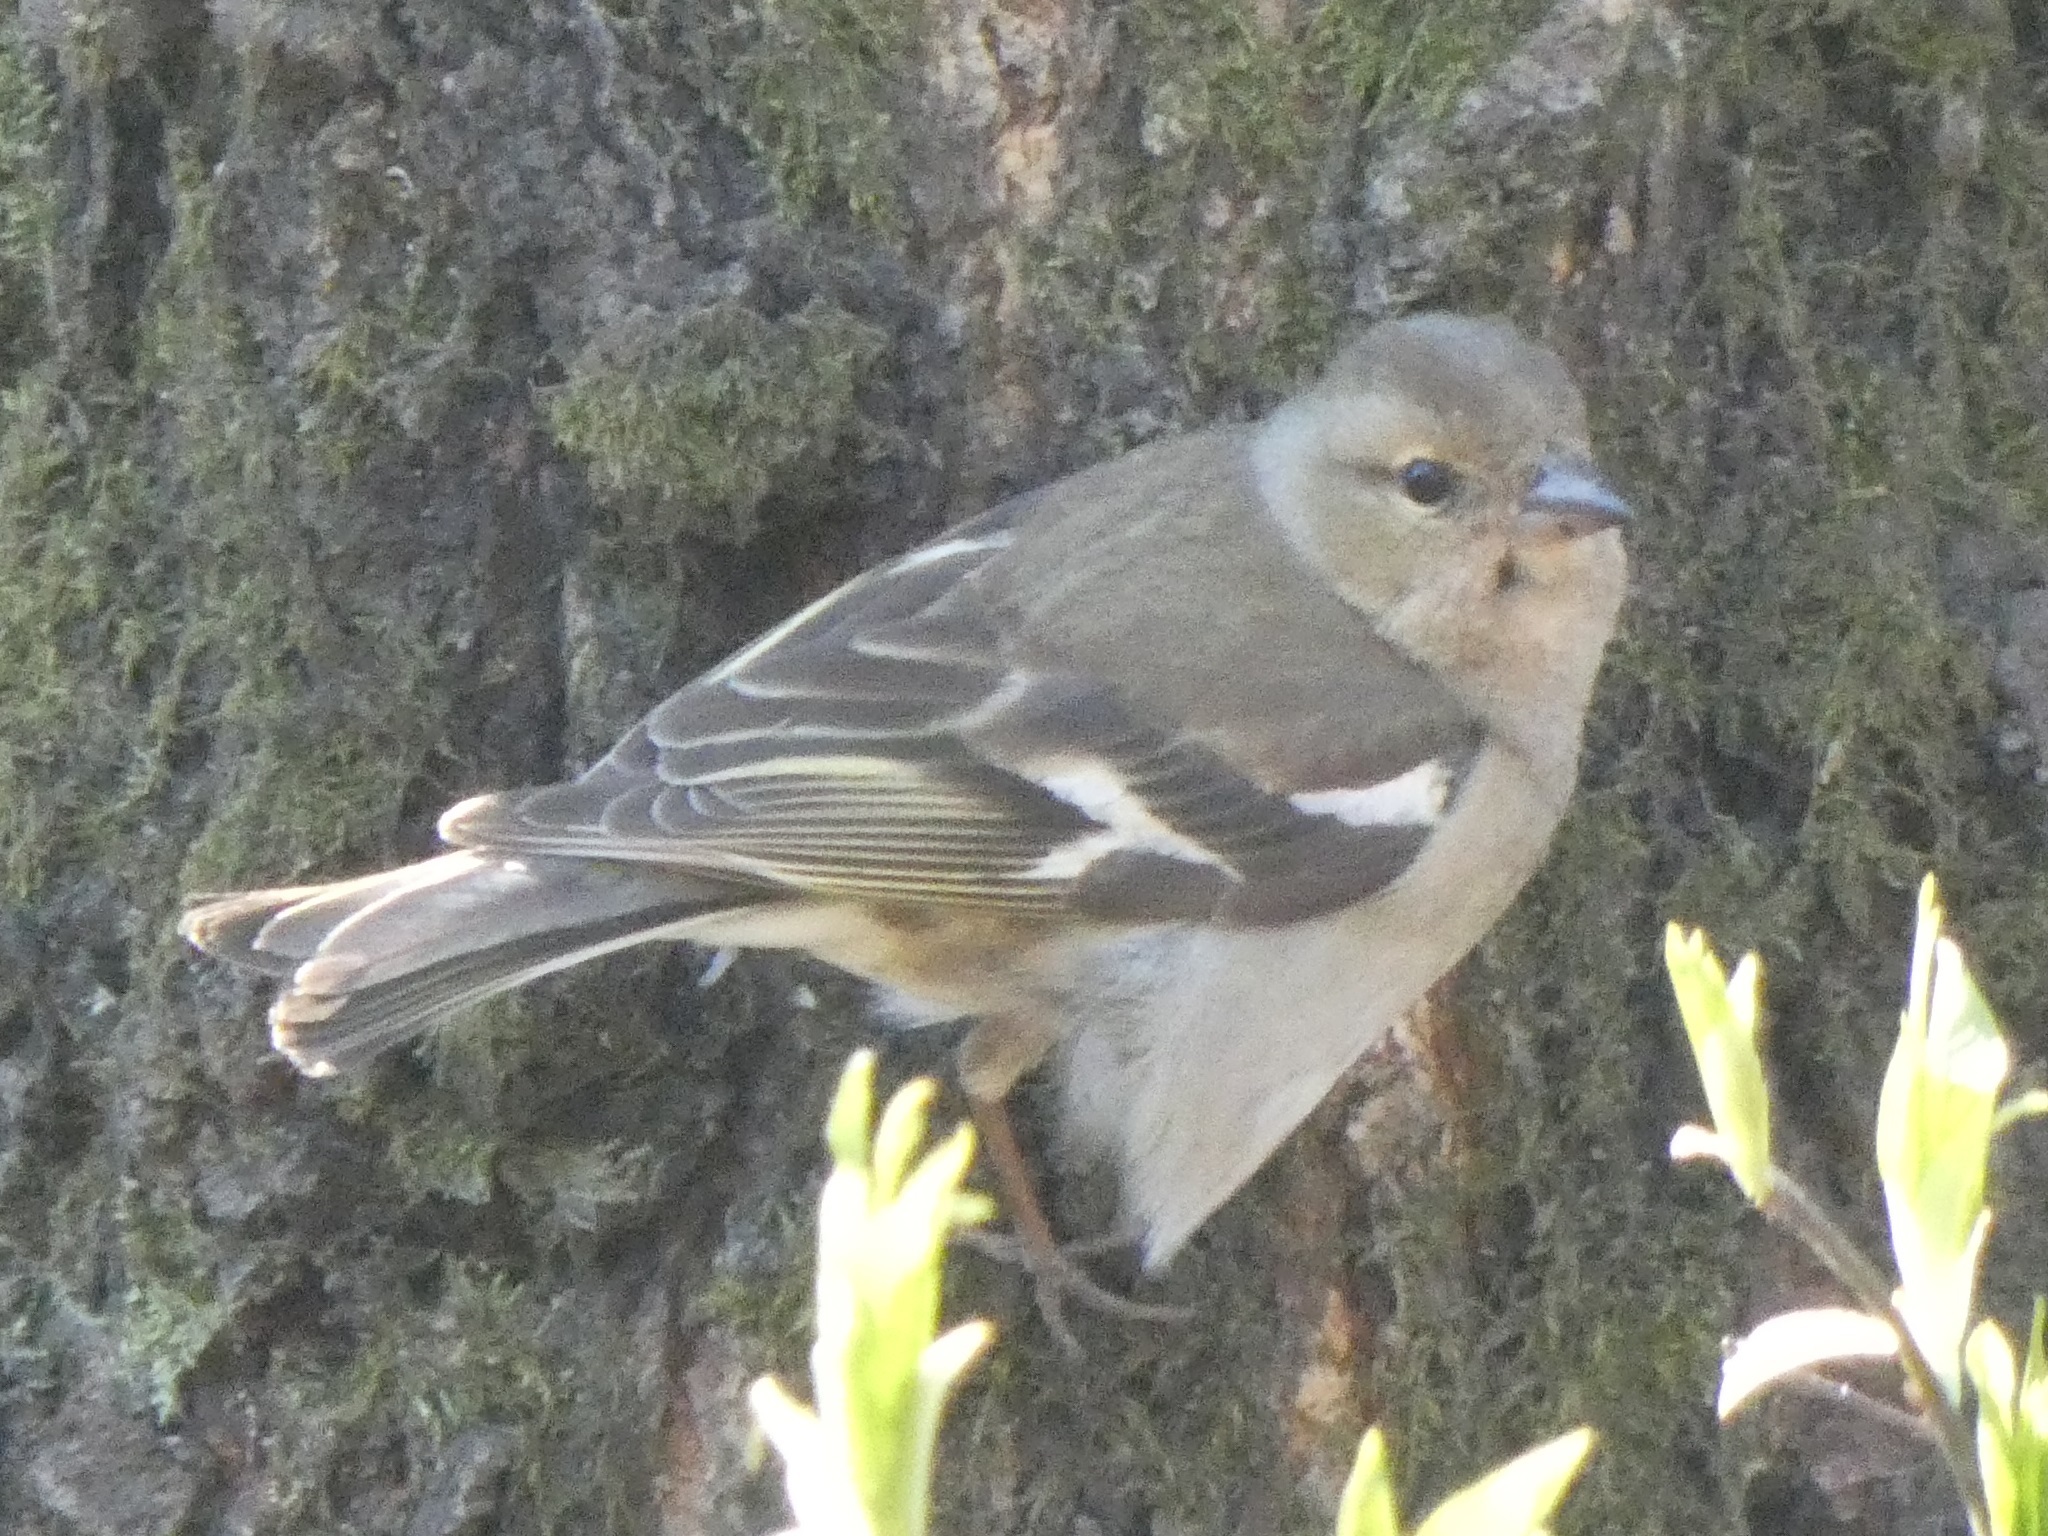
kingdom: Animalia
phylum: Chordata
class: Aves
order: Passeriformes
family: Fringillidae
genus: Fringilla
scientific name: Fringilla coelebs
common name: Common chaffinch
